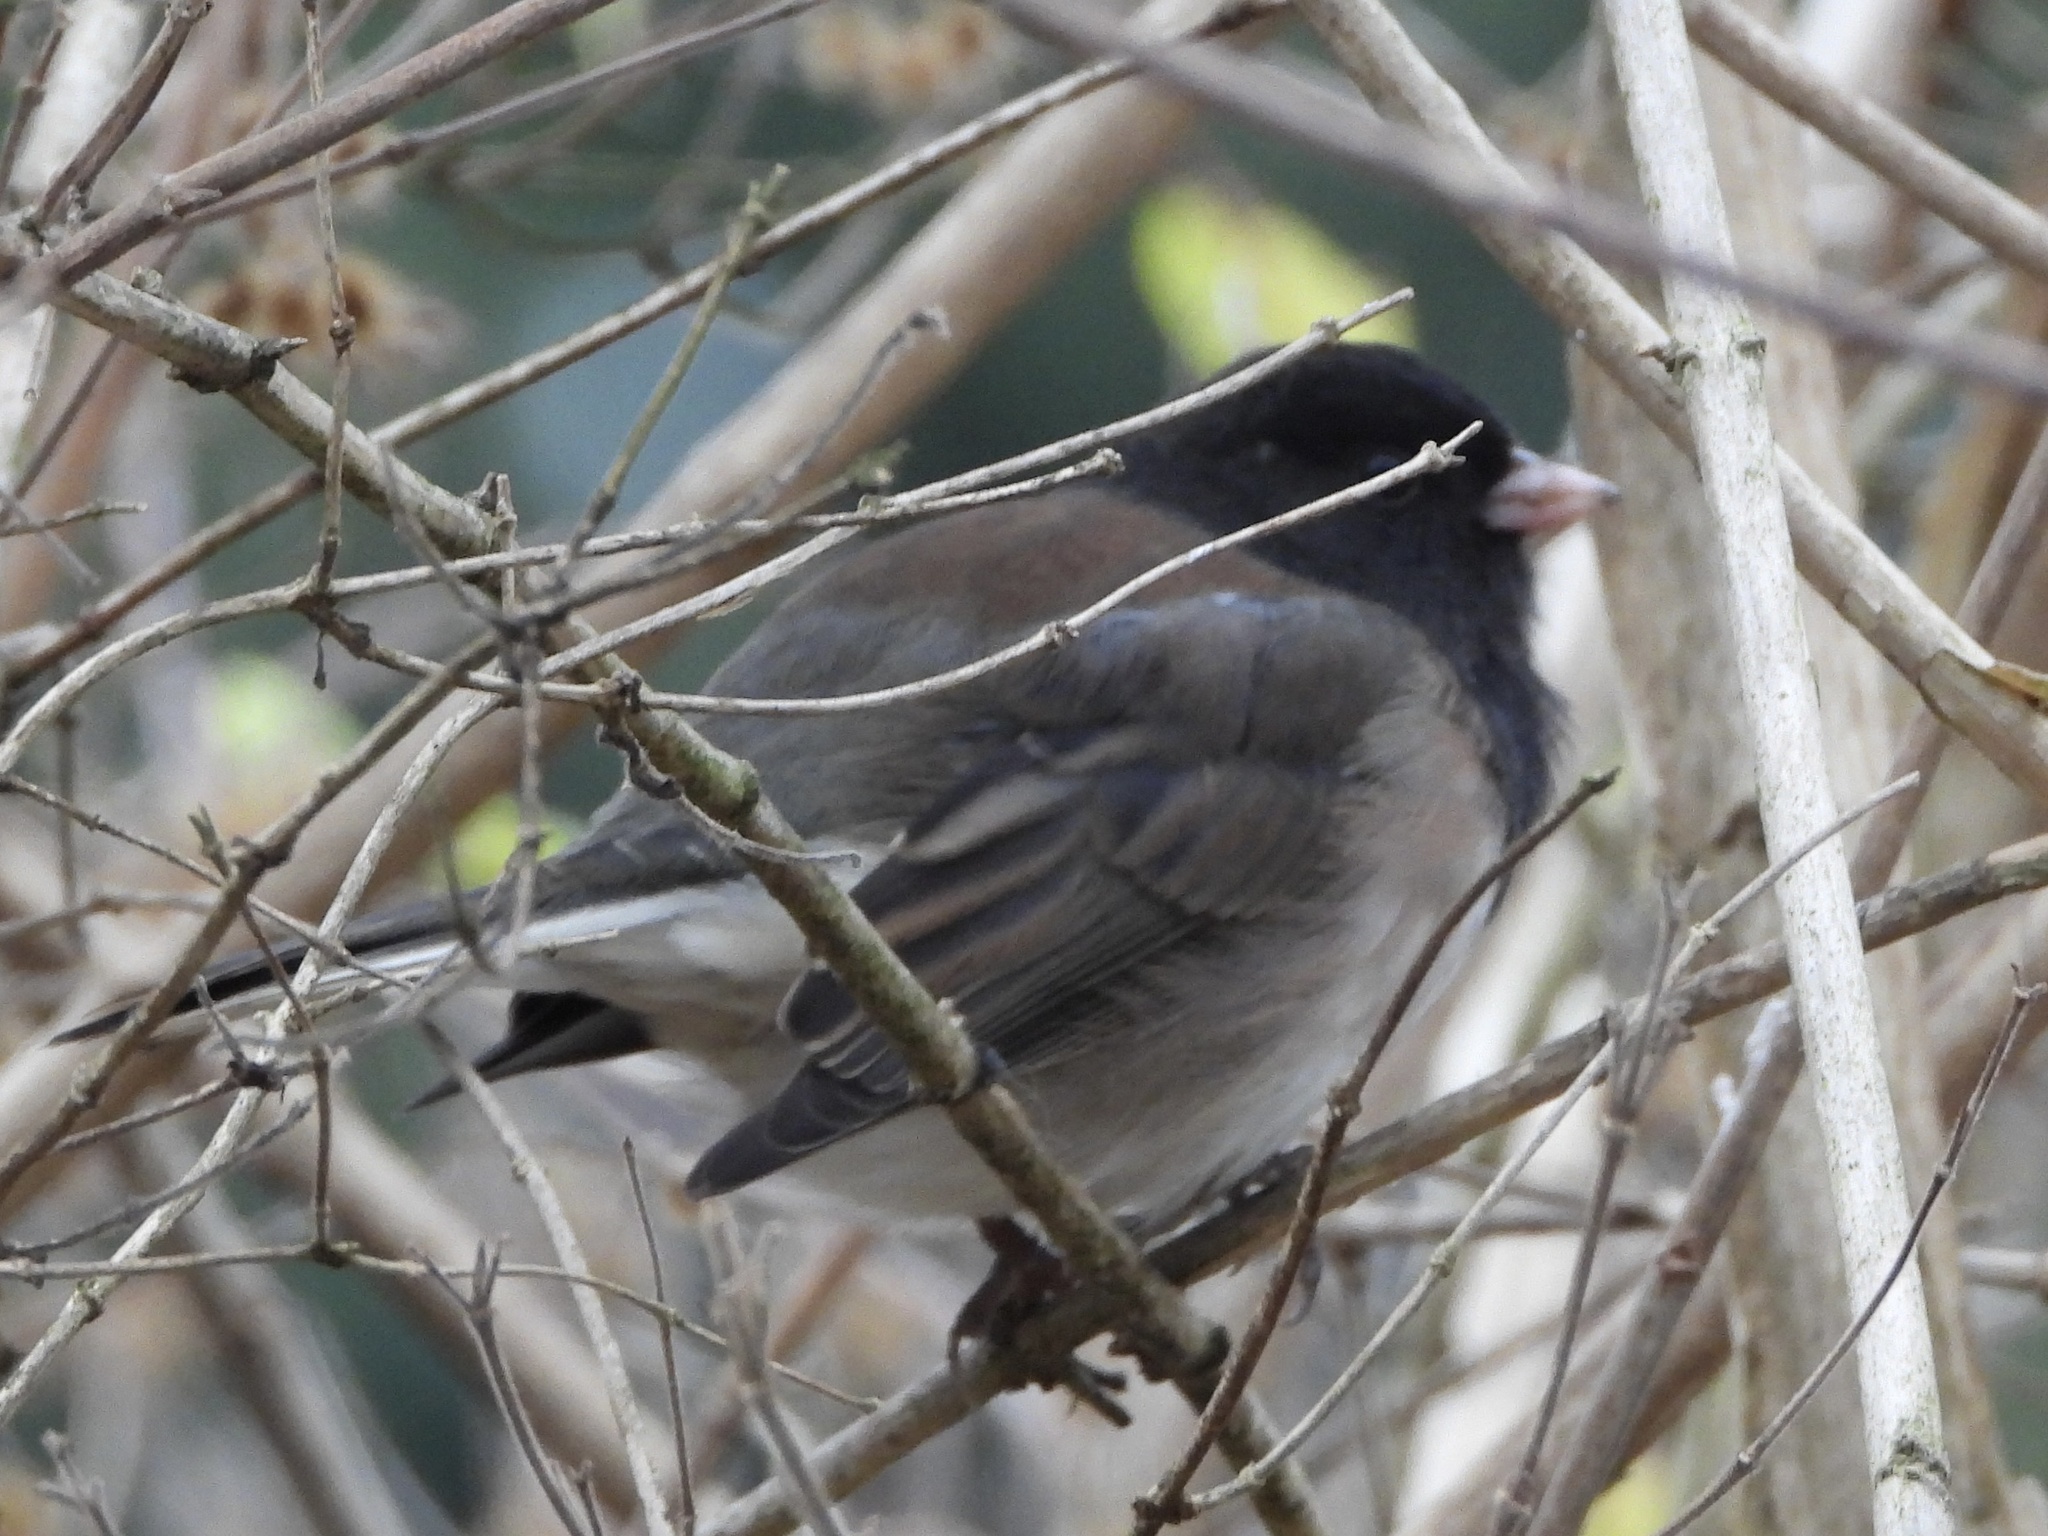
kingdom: Animalia
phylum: Chordata
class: Aves
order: Passeriformes
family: Passerellidae
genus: Junco
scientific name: Junco hyemalis
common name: Dark-eyed junco
